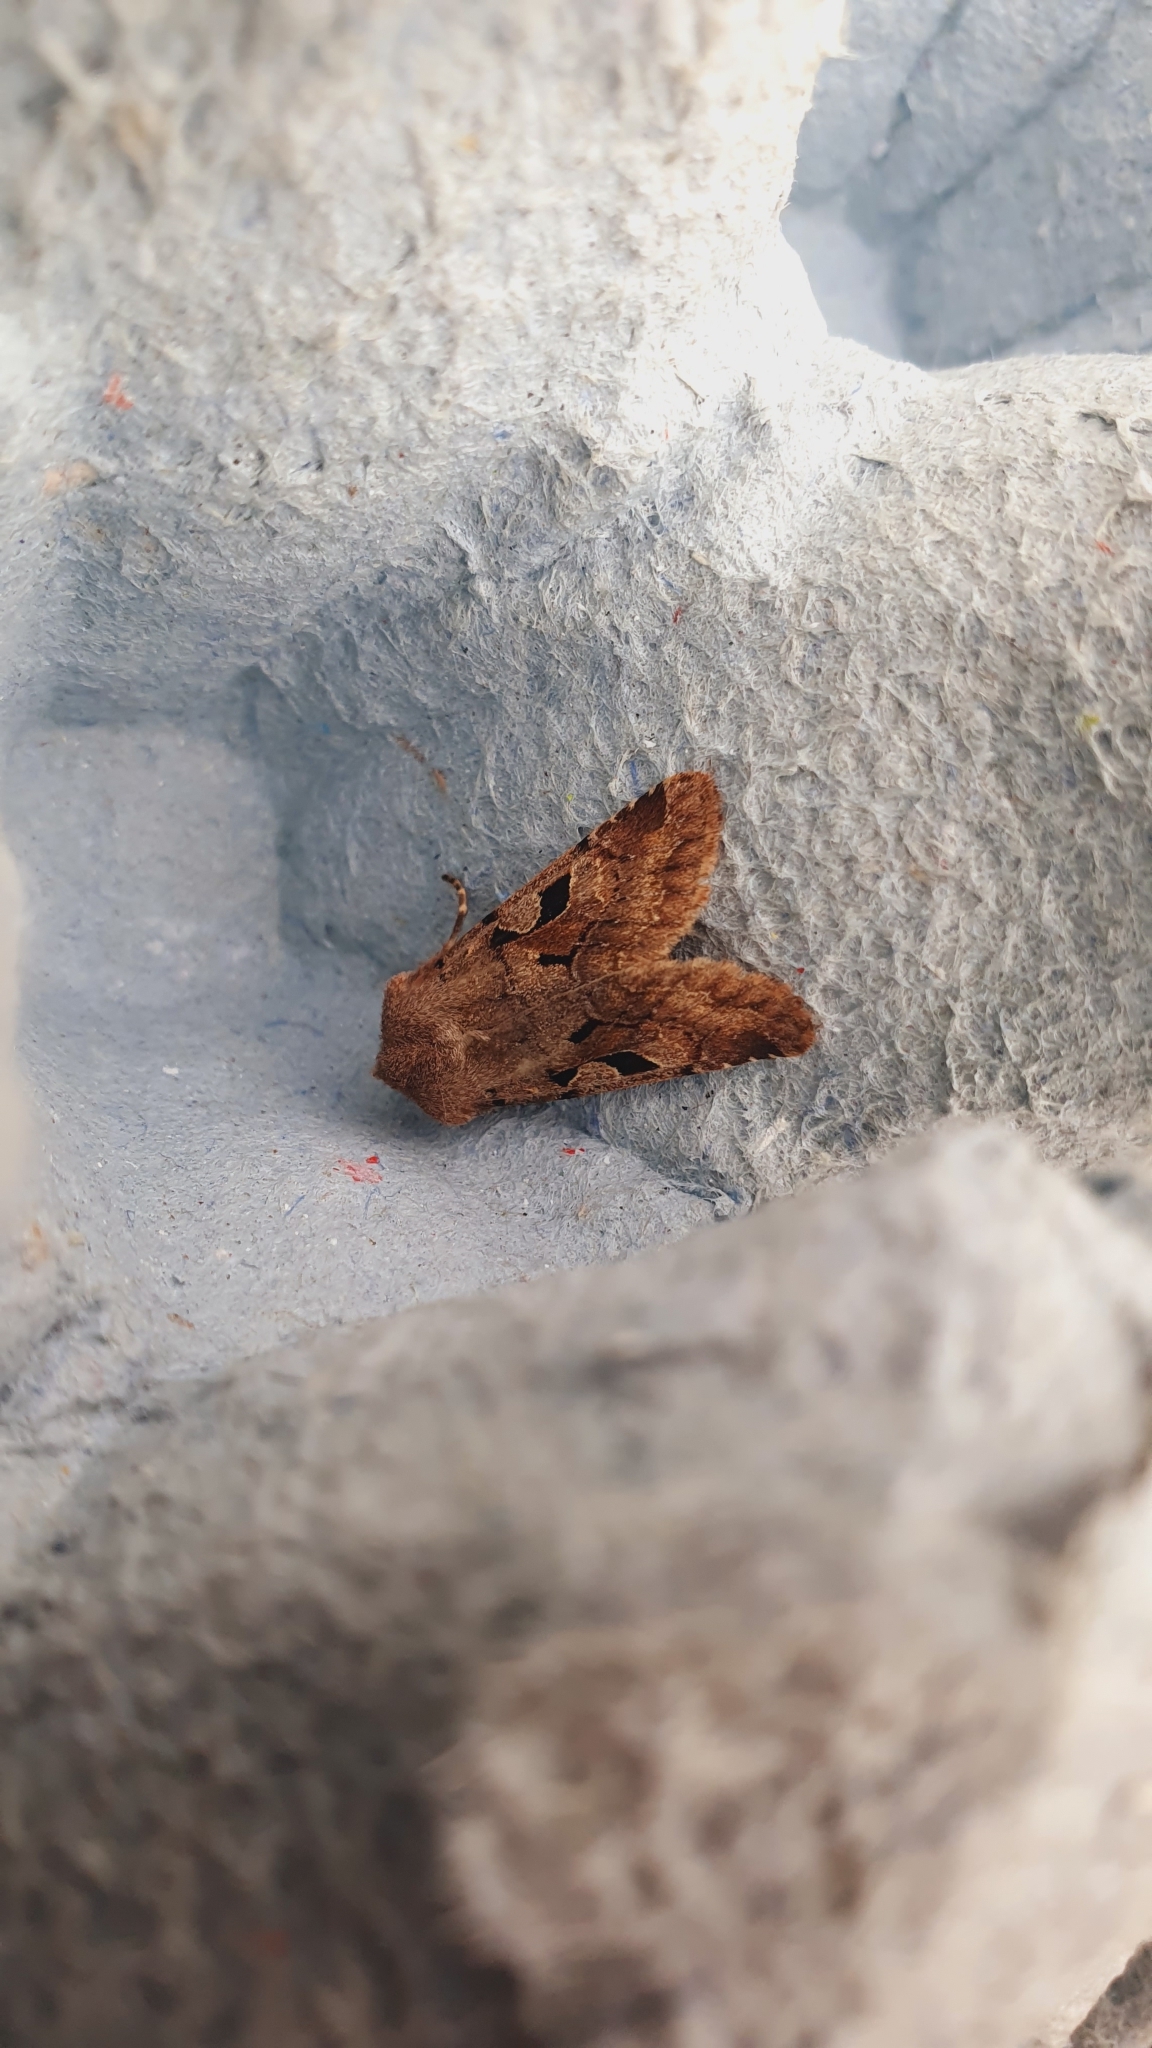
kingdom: Animalia
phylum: Arthropoda
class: Insecta
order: Lepidoptera
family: Noctuidae
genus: Orthosia
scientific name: Orthosia gothica
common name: Hebrew character
